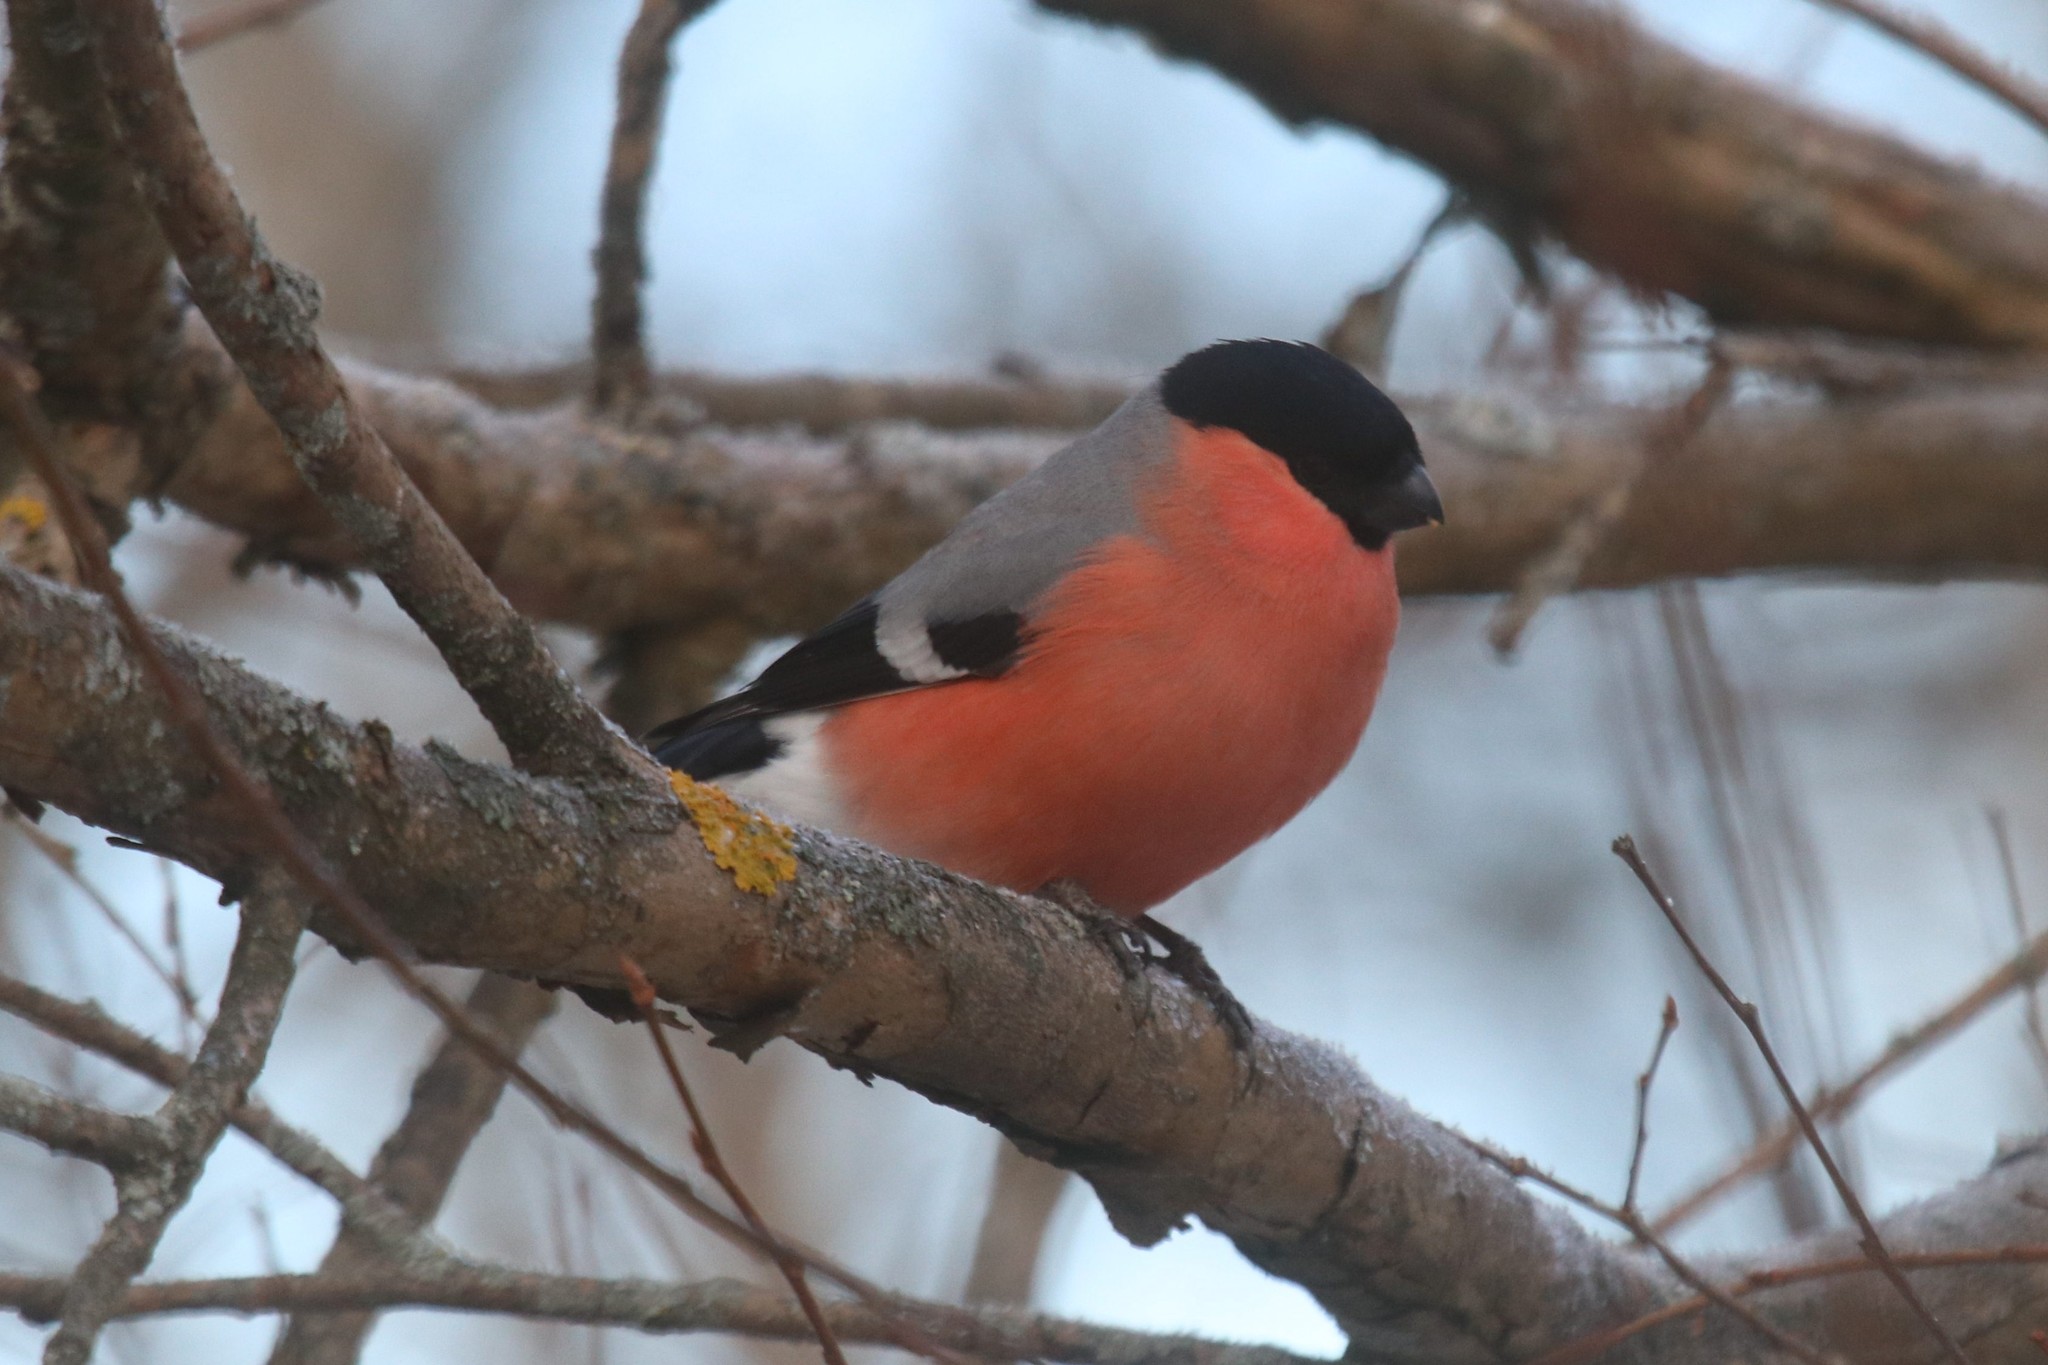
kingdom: Animalia
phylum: Chordata
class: Aves
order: Passeriformes
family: Fringillidae
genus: Pyrrhula
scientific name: Pyrrhula pyrrhula
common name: Eurasian bullfinch
